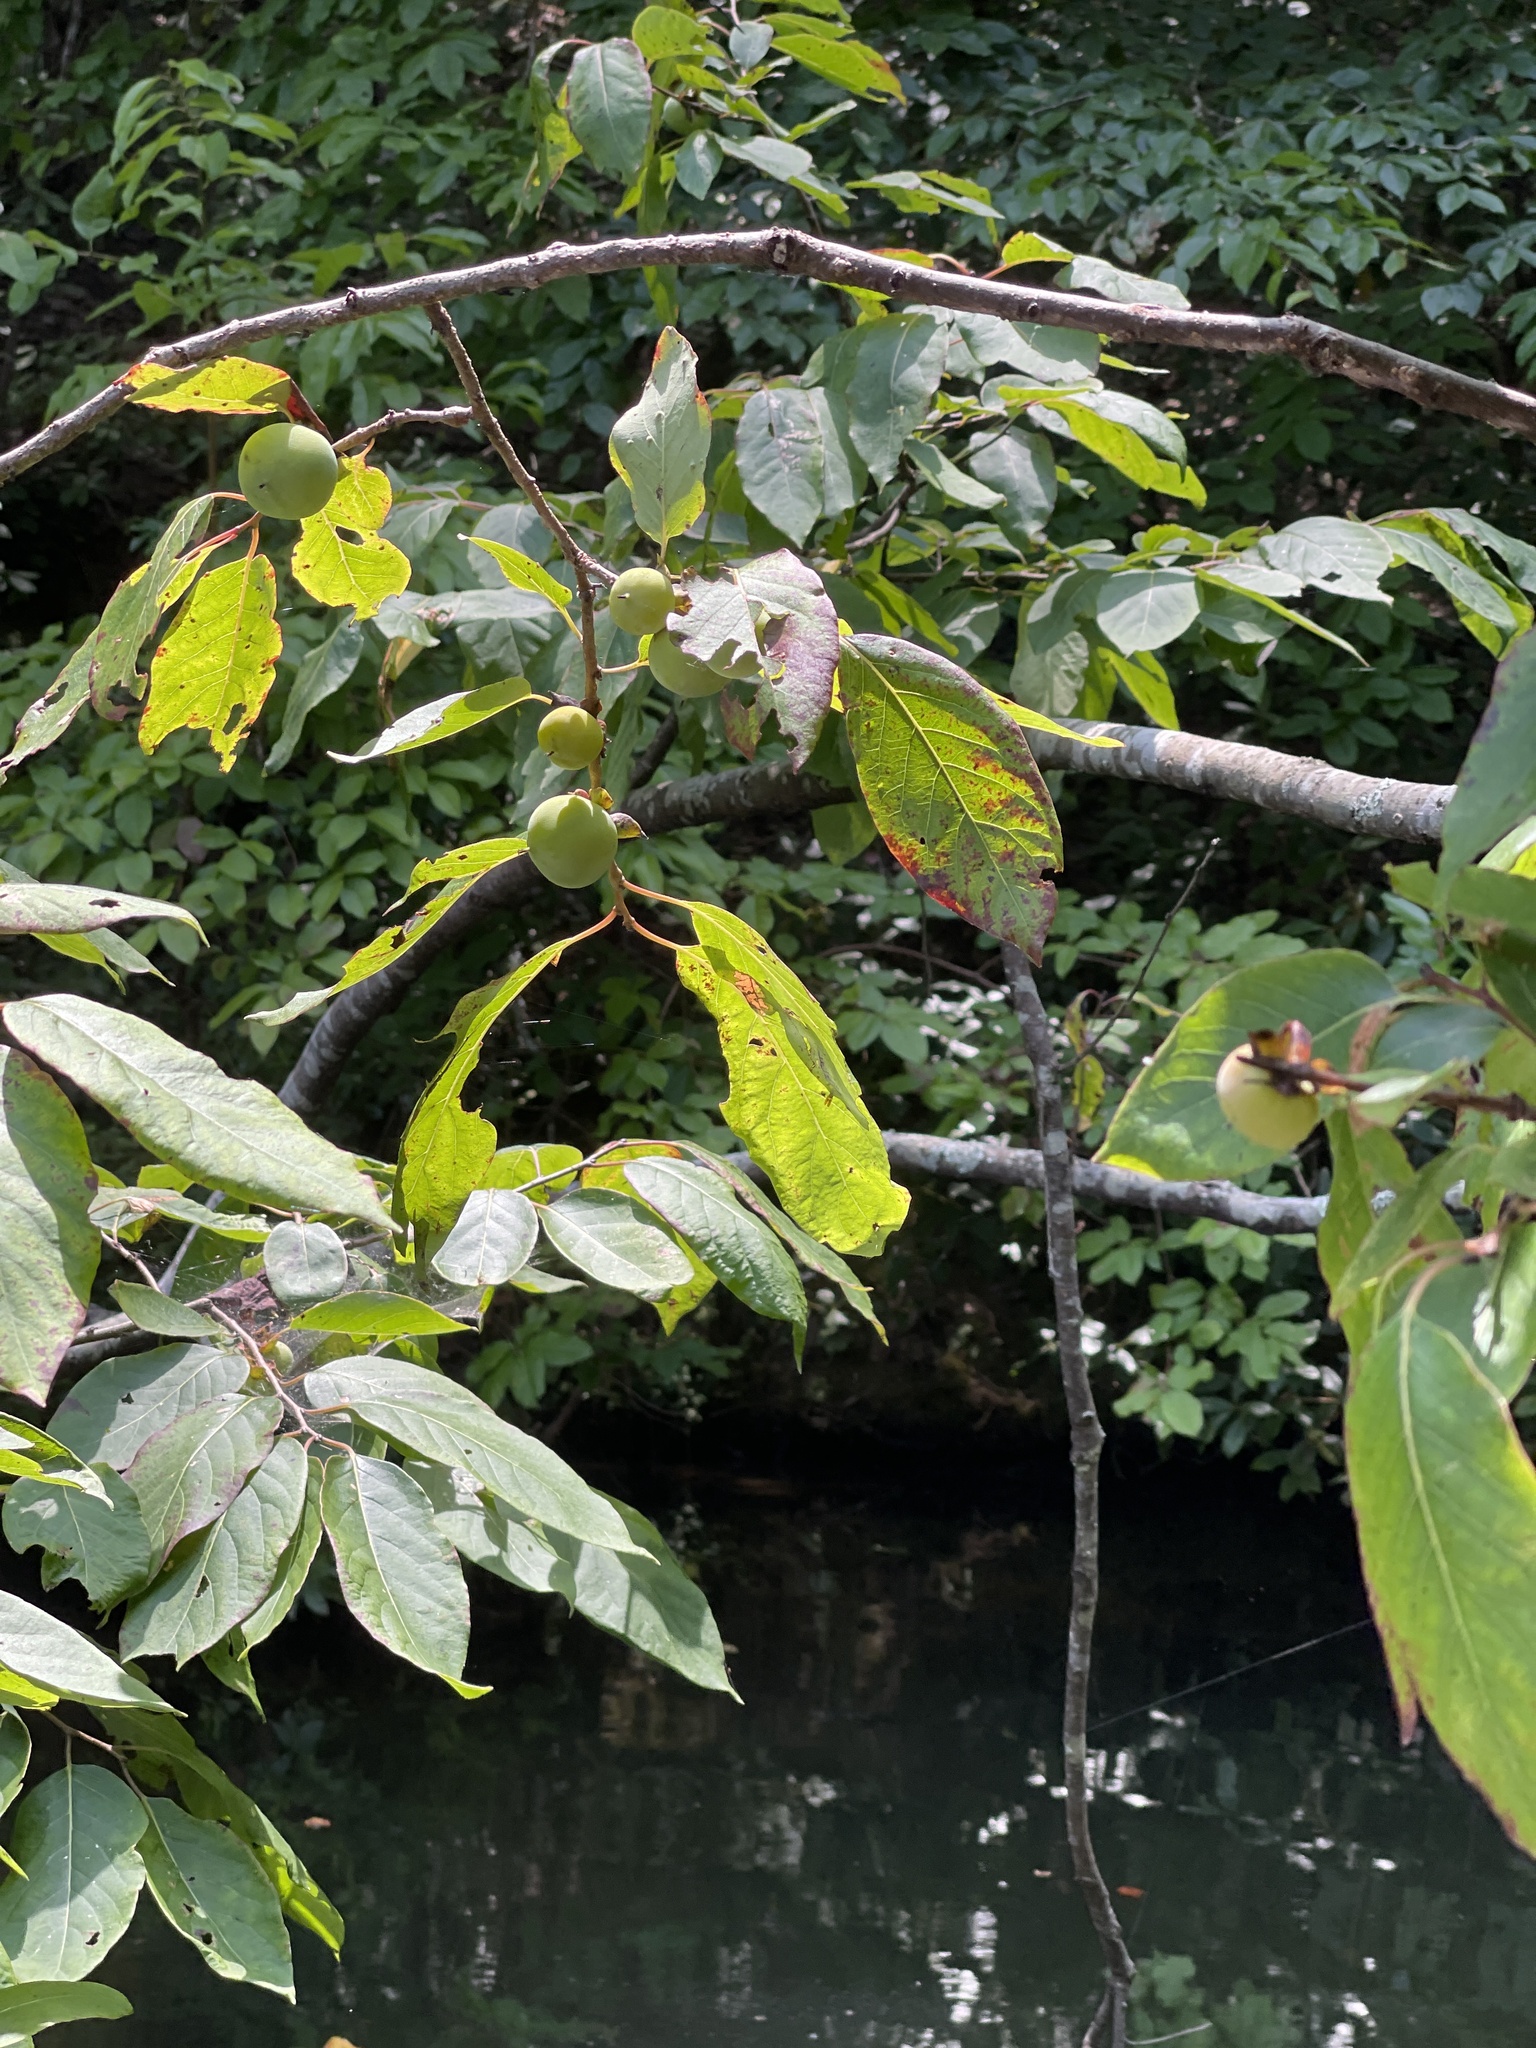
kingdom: Plantae
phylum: Tracheophyta
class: Magnoliopsida
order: Ericales
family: Ebenaceae
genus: Diospyros
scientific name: Diospyros virginiana
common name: Persimmon
